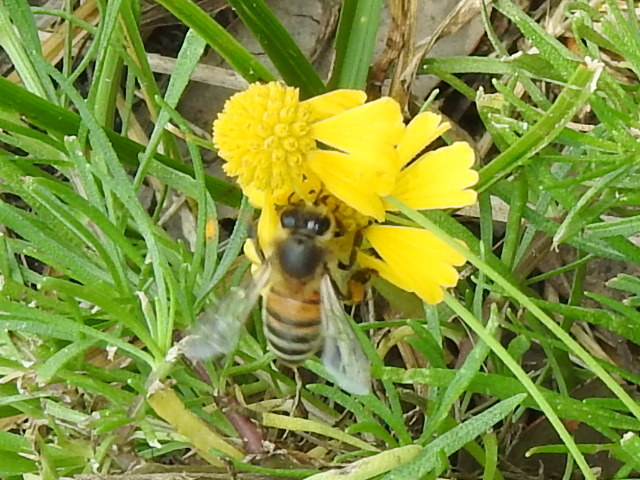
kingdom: Animalia
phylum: Arthropoda
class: Insecta
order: Hymenoptera
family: Apidae
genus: Apis
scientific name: Apis mellifera
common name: Honey bee
